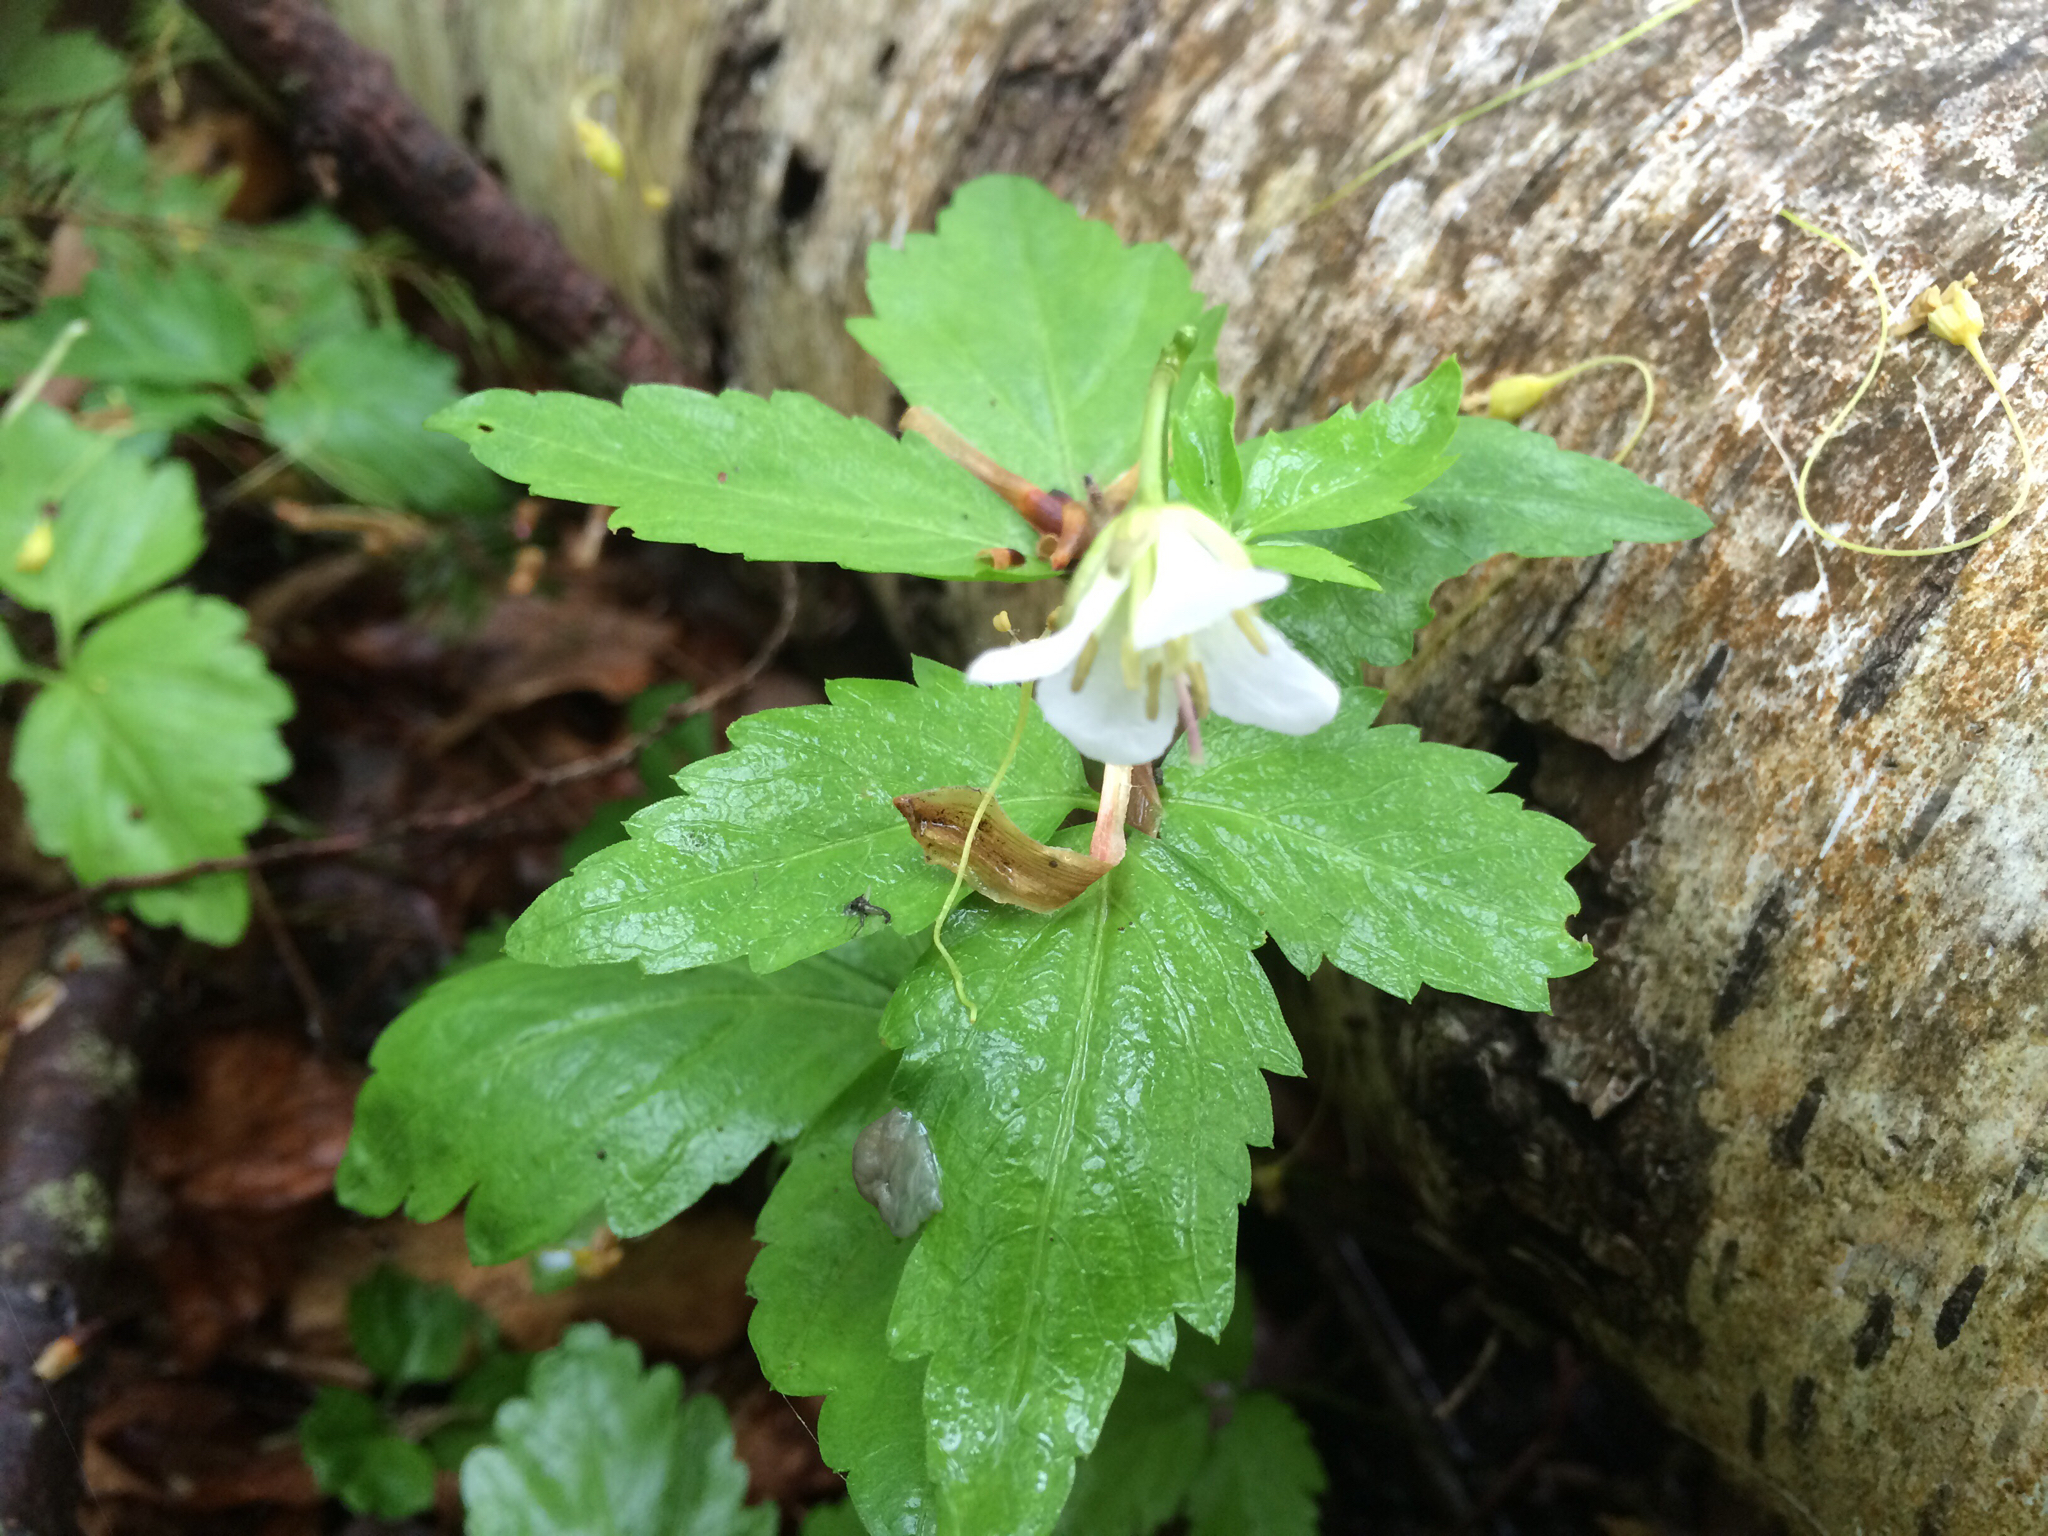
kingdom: Plantae
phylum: Tracheophyta
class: Magnoliopsida
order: Brassicales
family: Brassicaceae
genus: Cardamine
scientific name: Cardamine diphylla
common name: Broad-leaved toothwort
